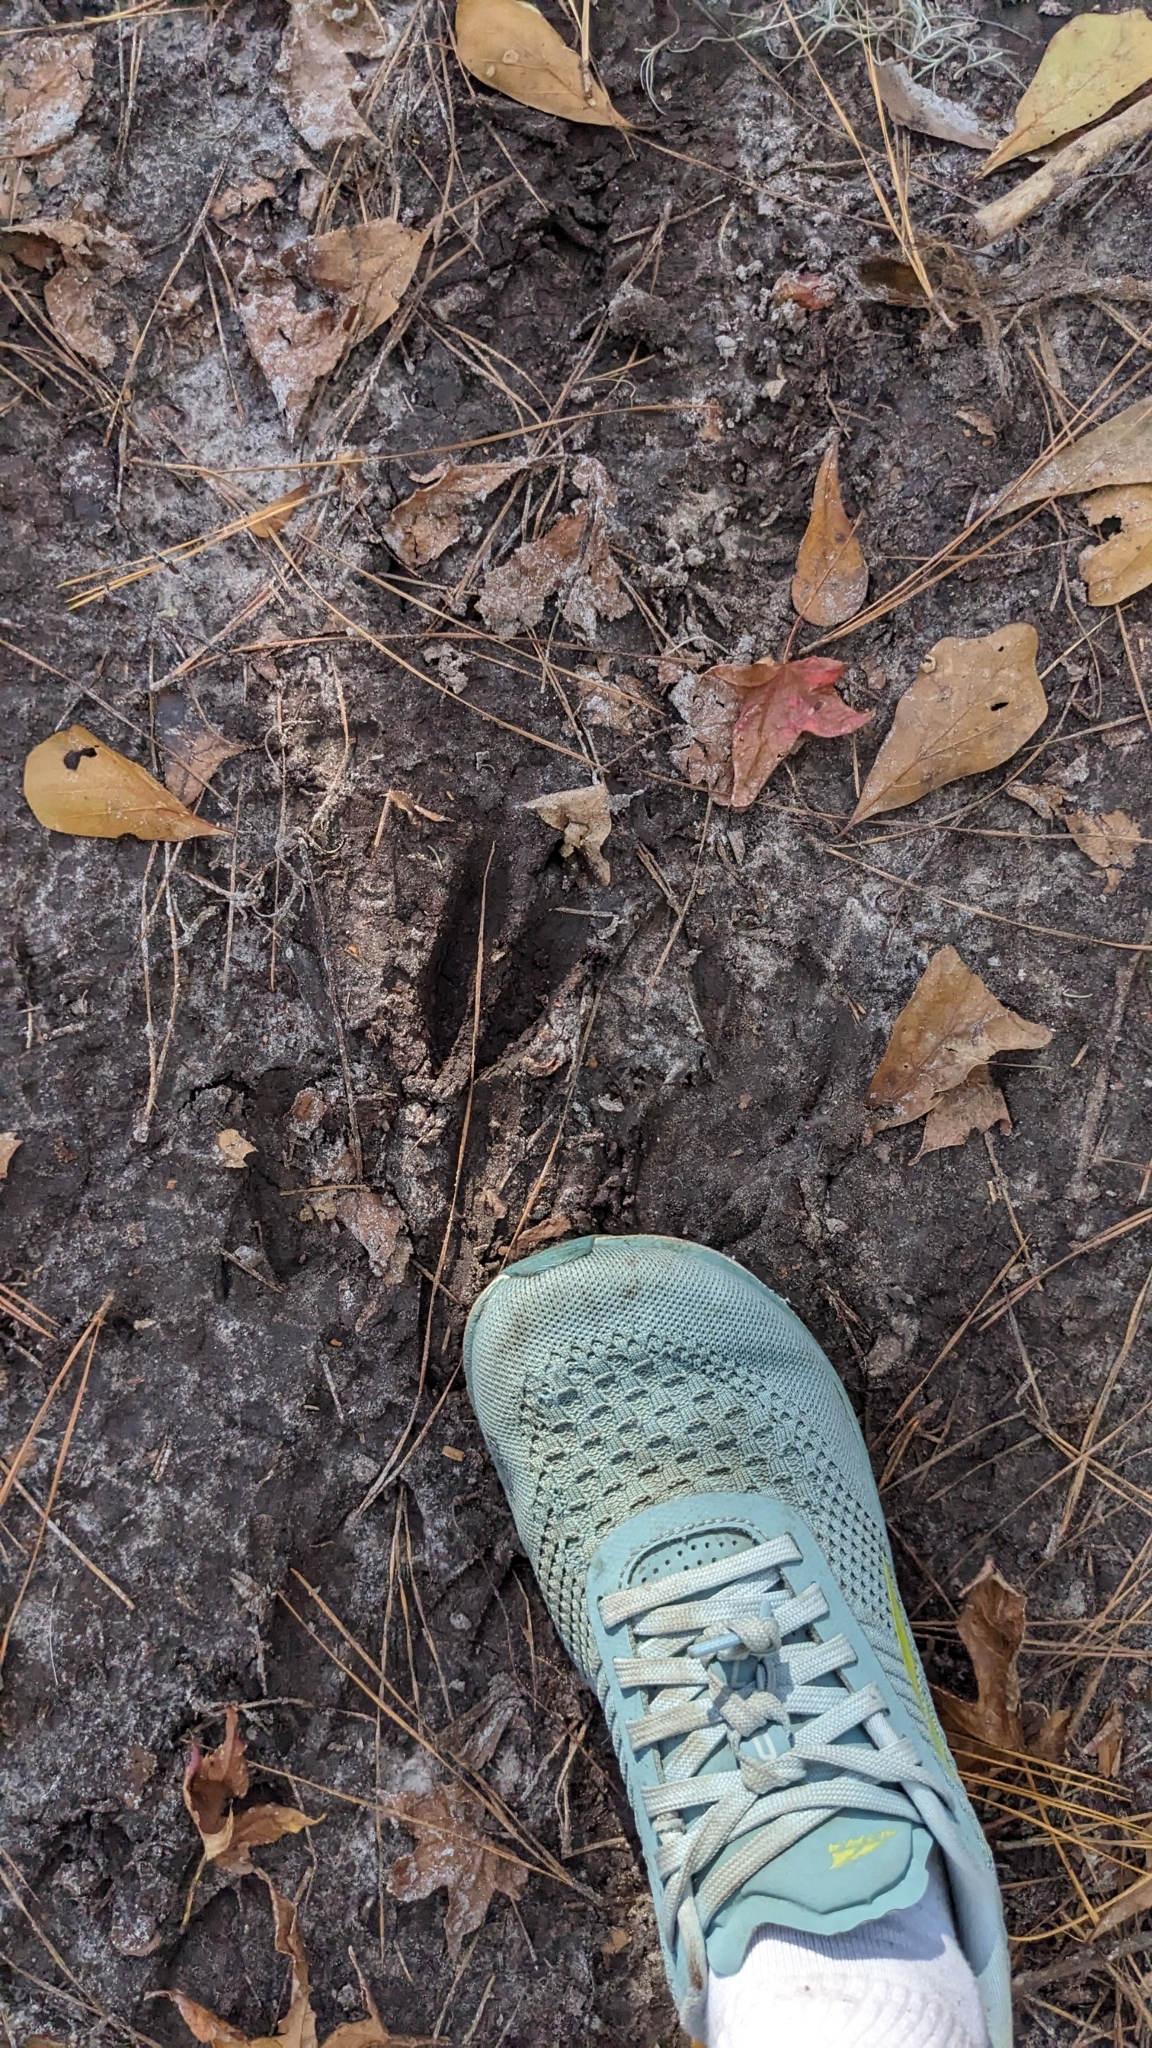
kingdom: Animalia
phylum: Chordata
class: Mammalia
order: Artiodactyla
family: Cervidae
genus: Odocoileus
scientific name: Odocoileus virginianus
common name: White-tailed deer
